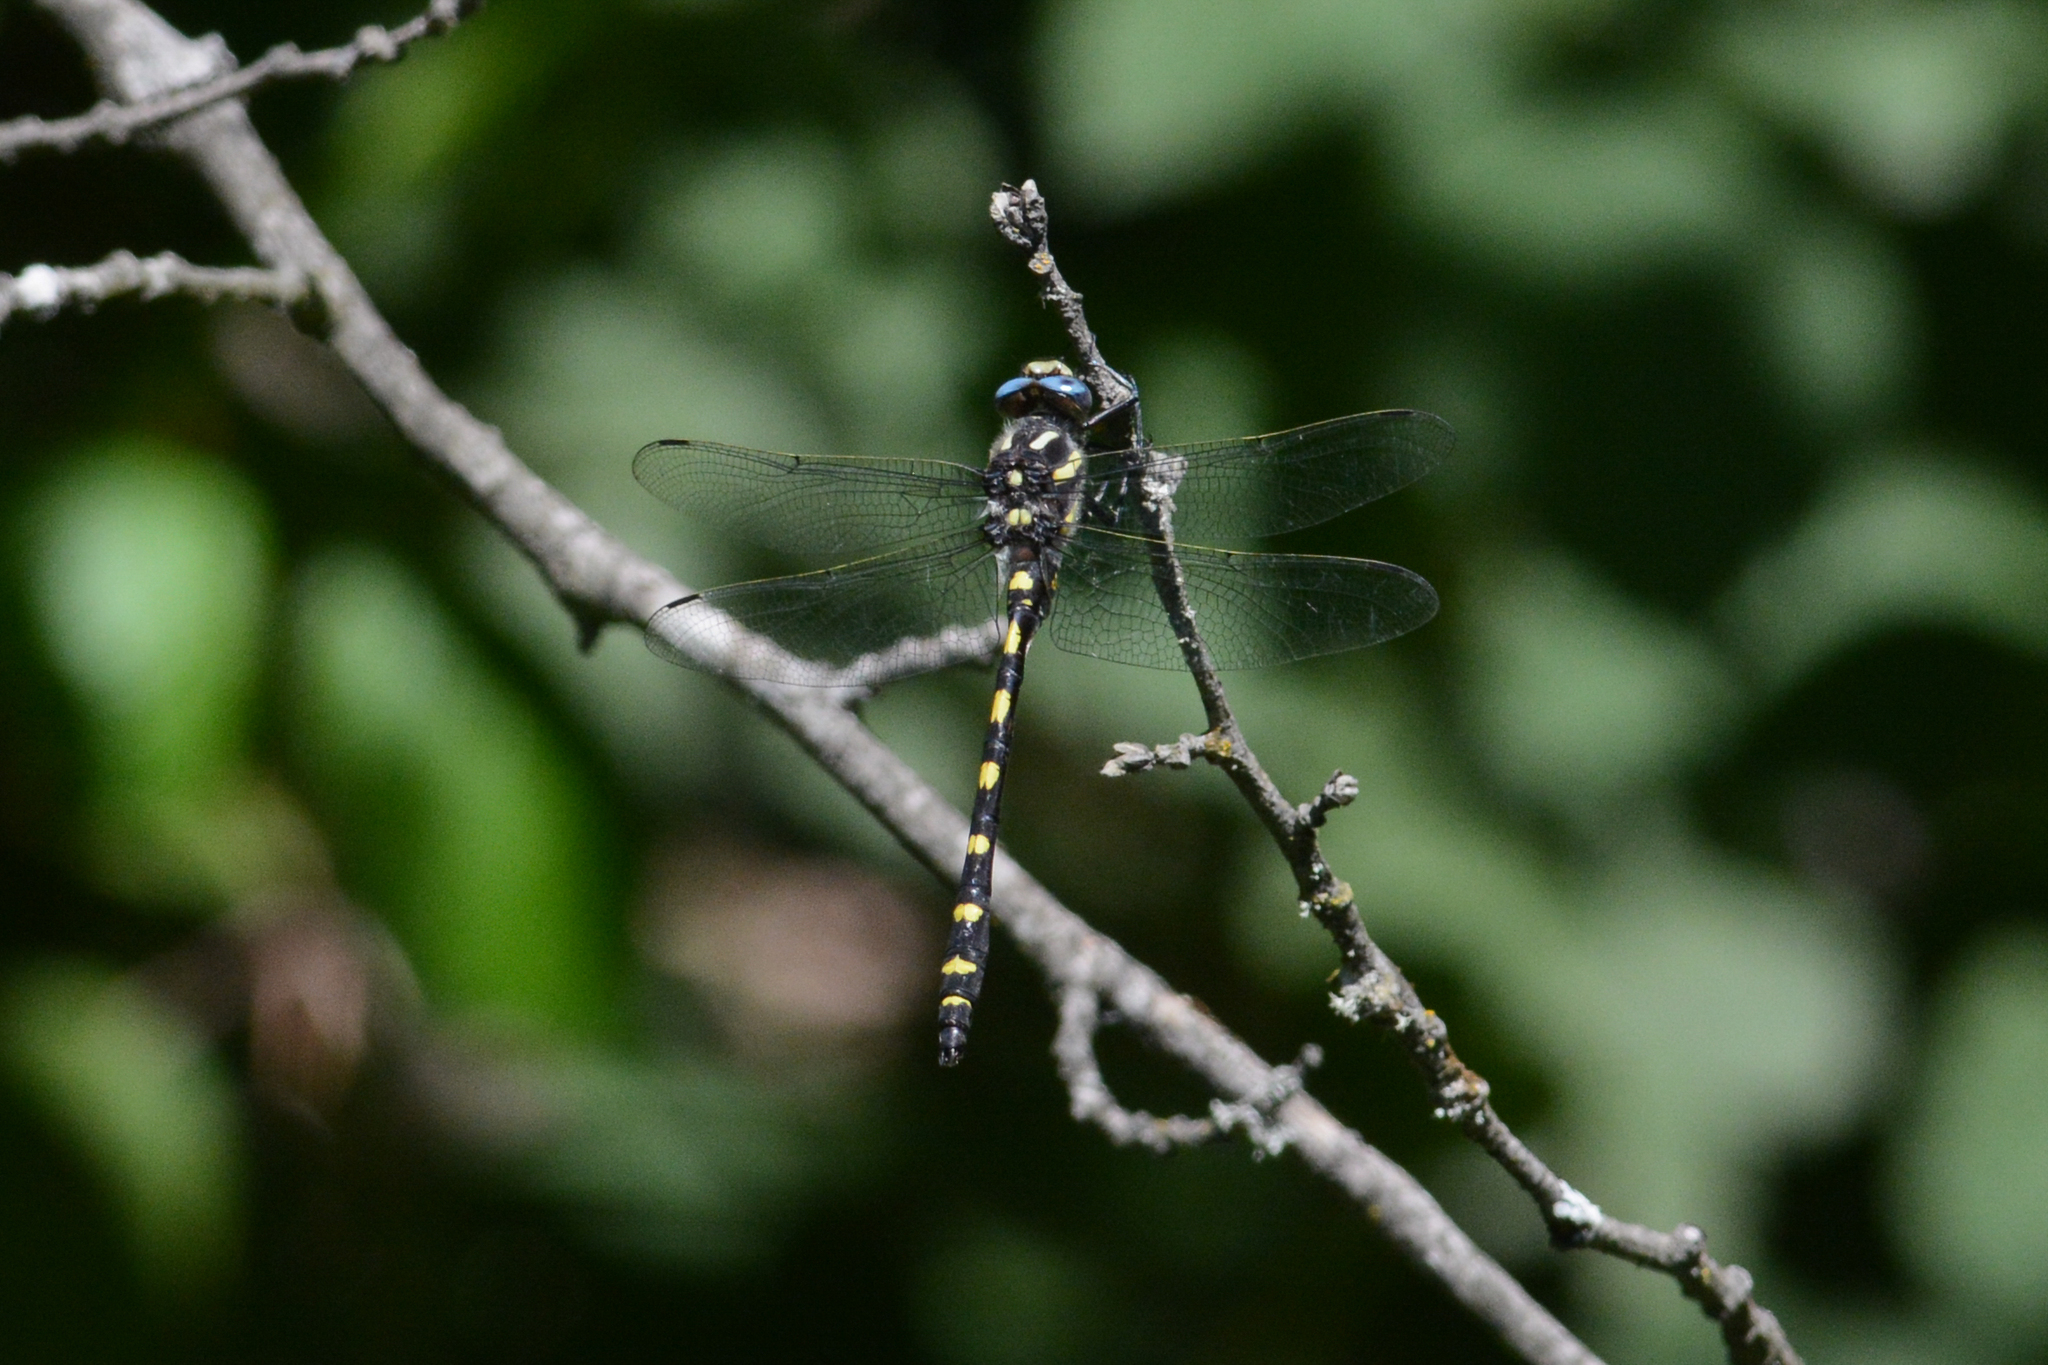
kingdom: Animalia
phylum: Arthropoda
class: Insecta
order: Odonata
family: Cordulegastridae
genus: Cordulegaster
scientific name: Cordulegaster dorsalis
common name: Pacific spiketail
